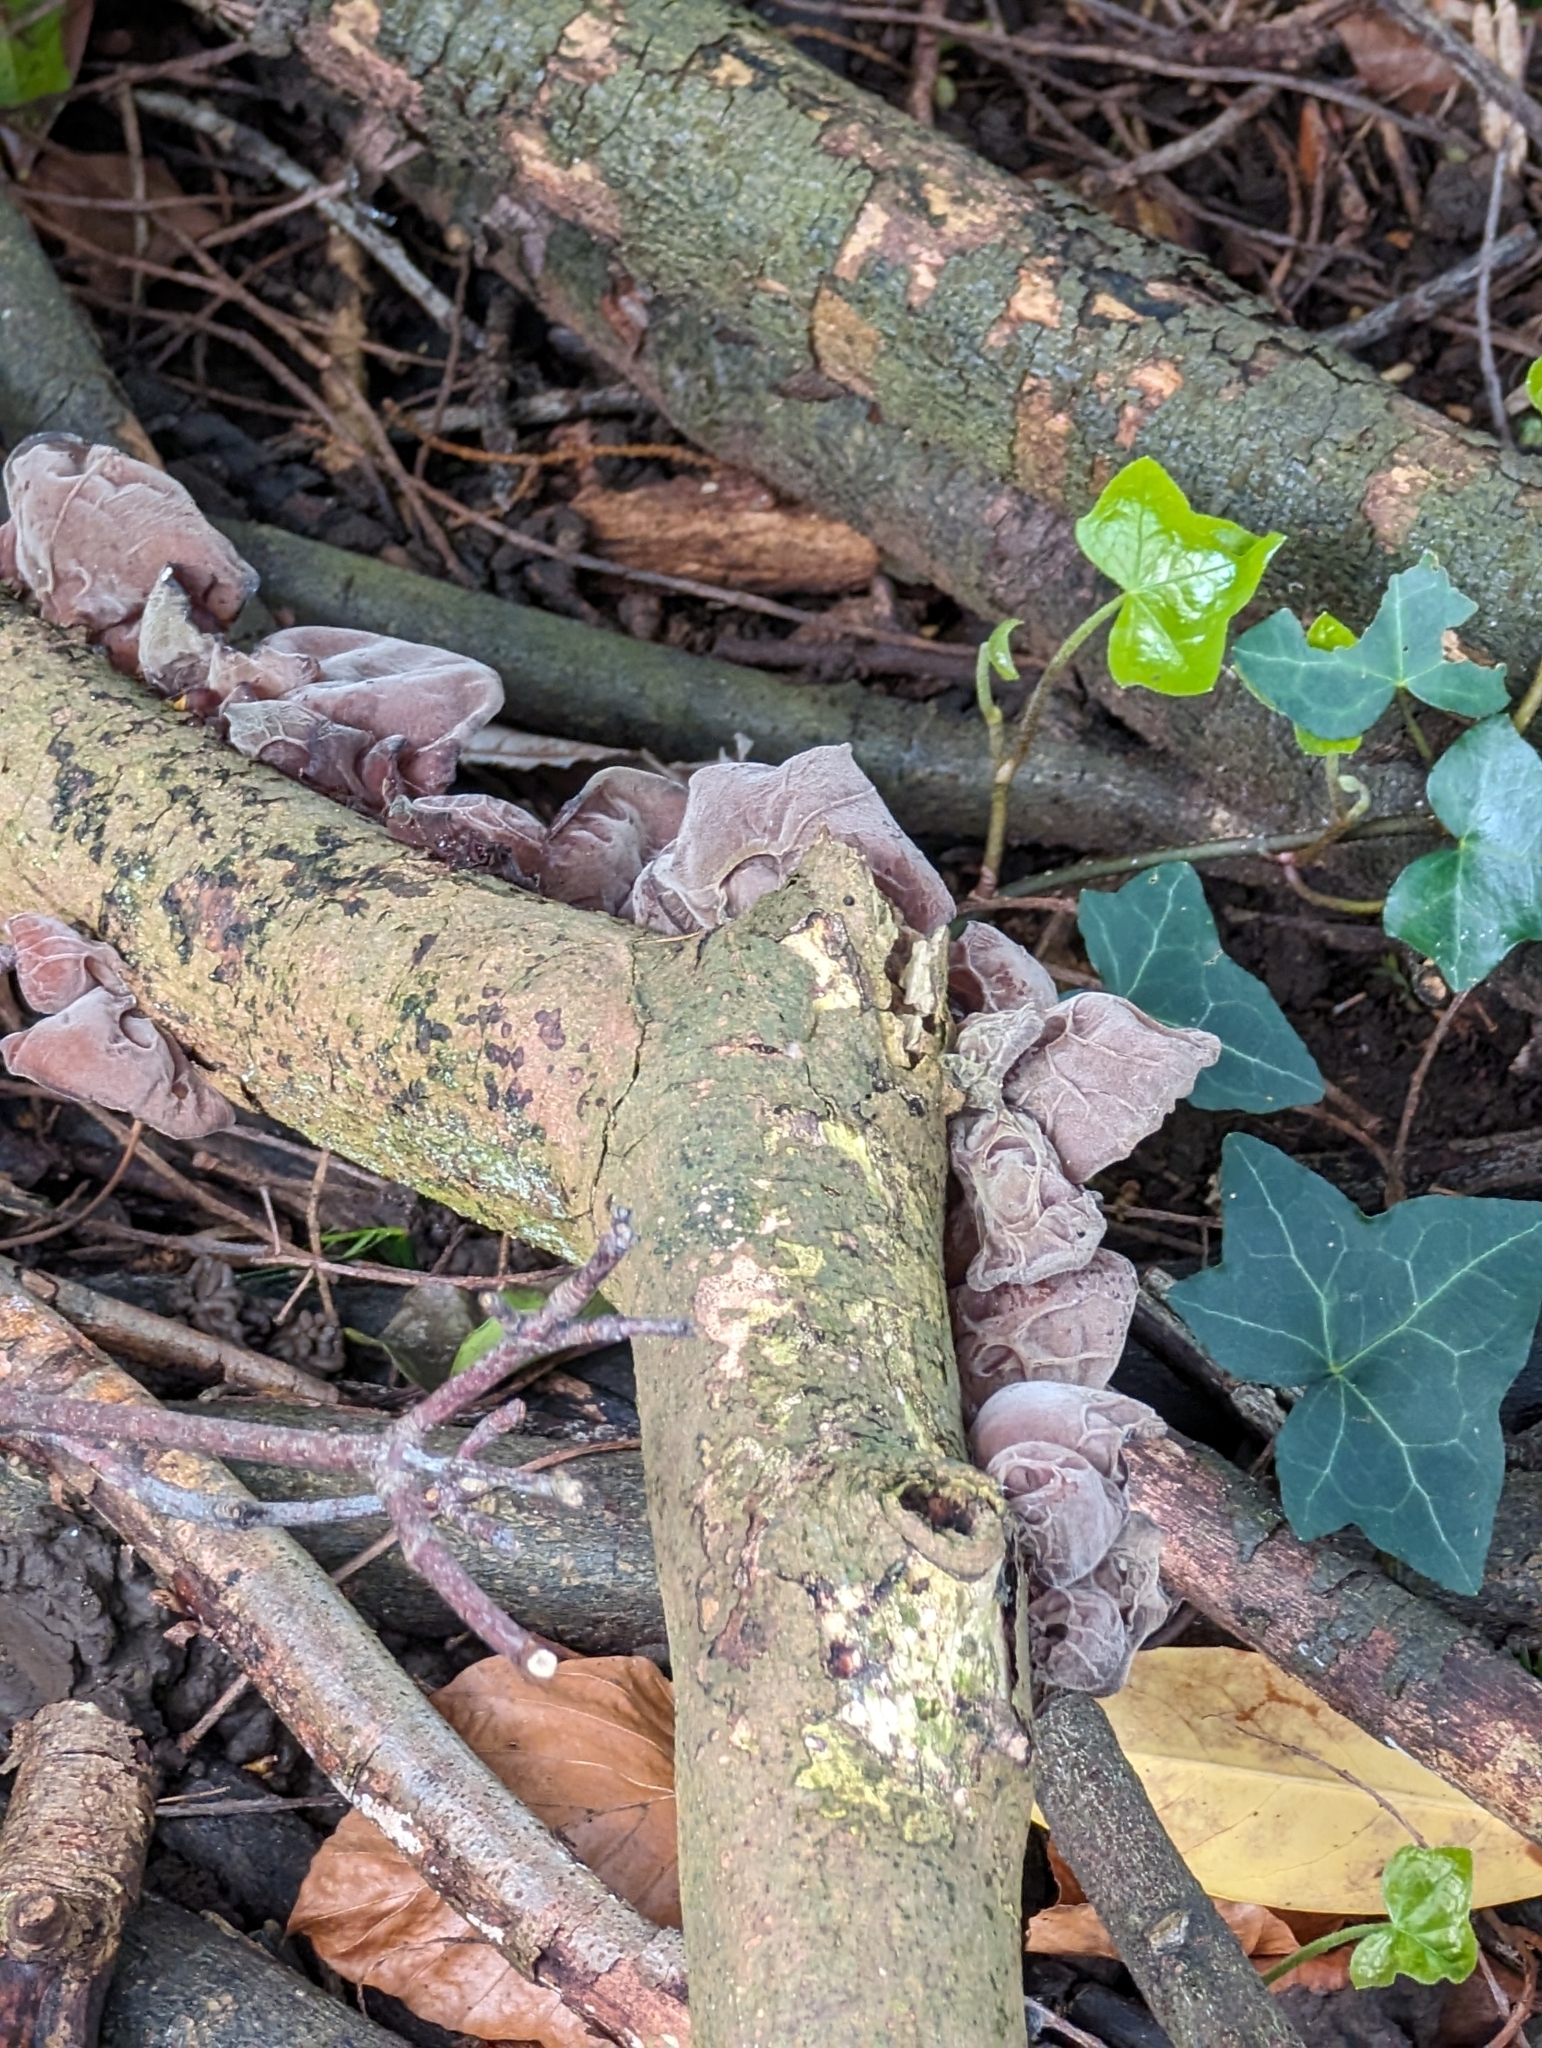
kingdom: Fungi
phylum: Basidiomycota
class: Agaricomycetes
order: Auriculariales
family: Auriculariaceae
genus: Auricularia
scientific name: Auricularia auricula-judae
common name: Jelly ear
